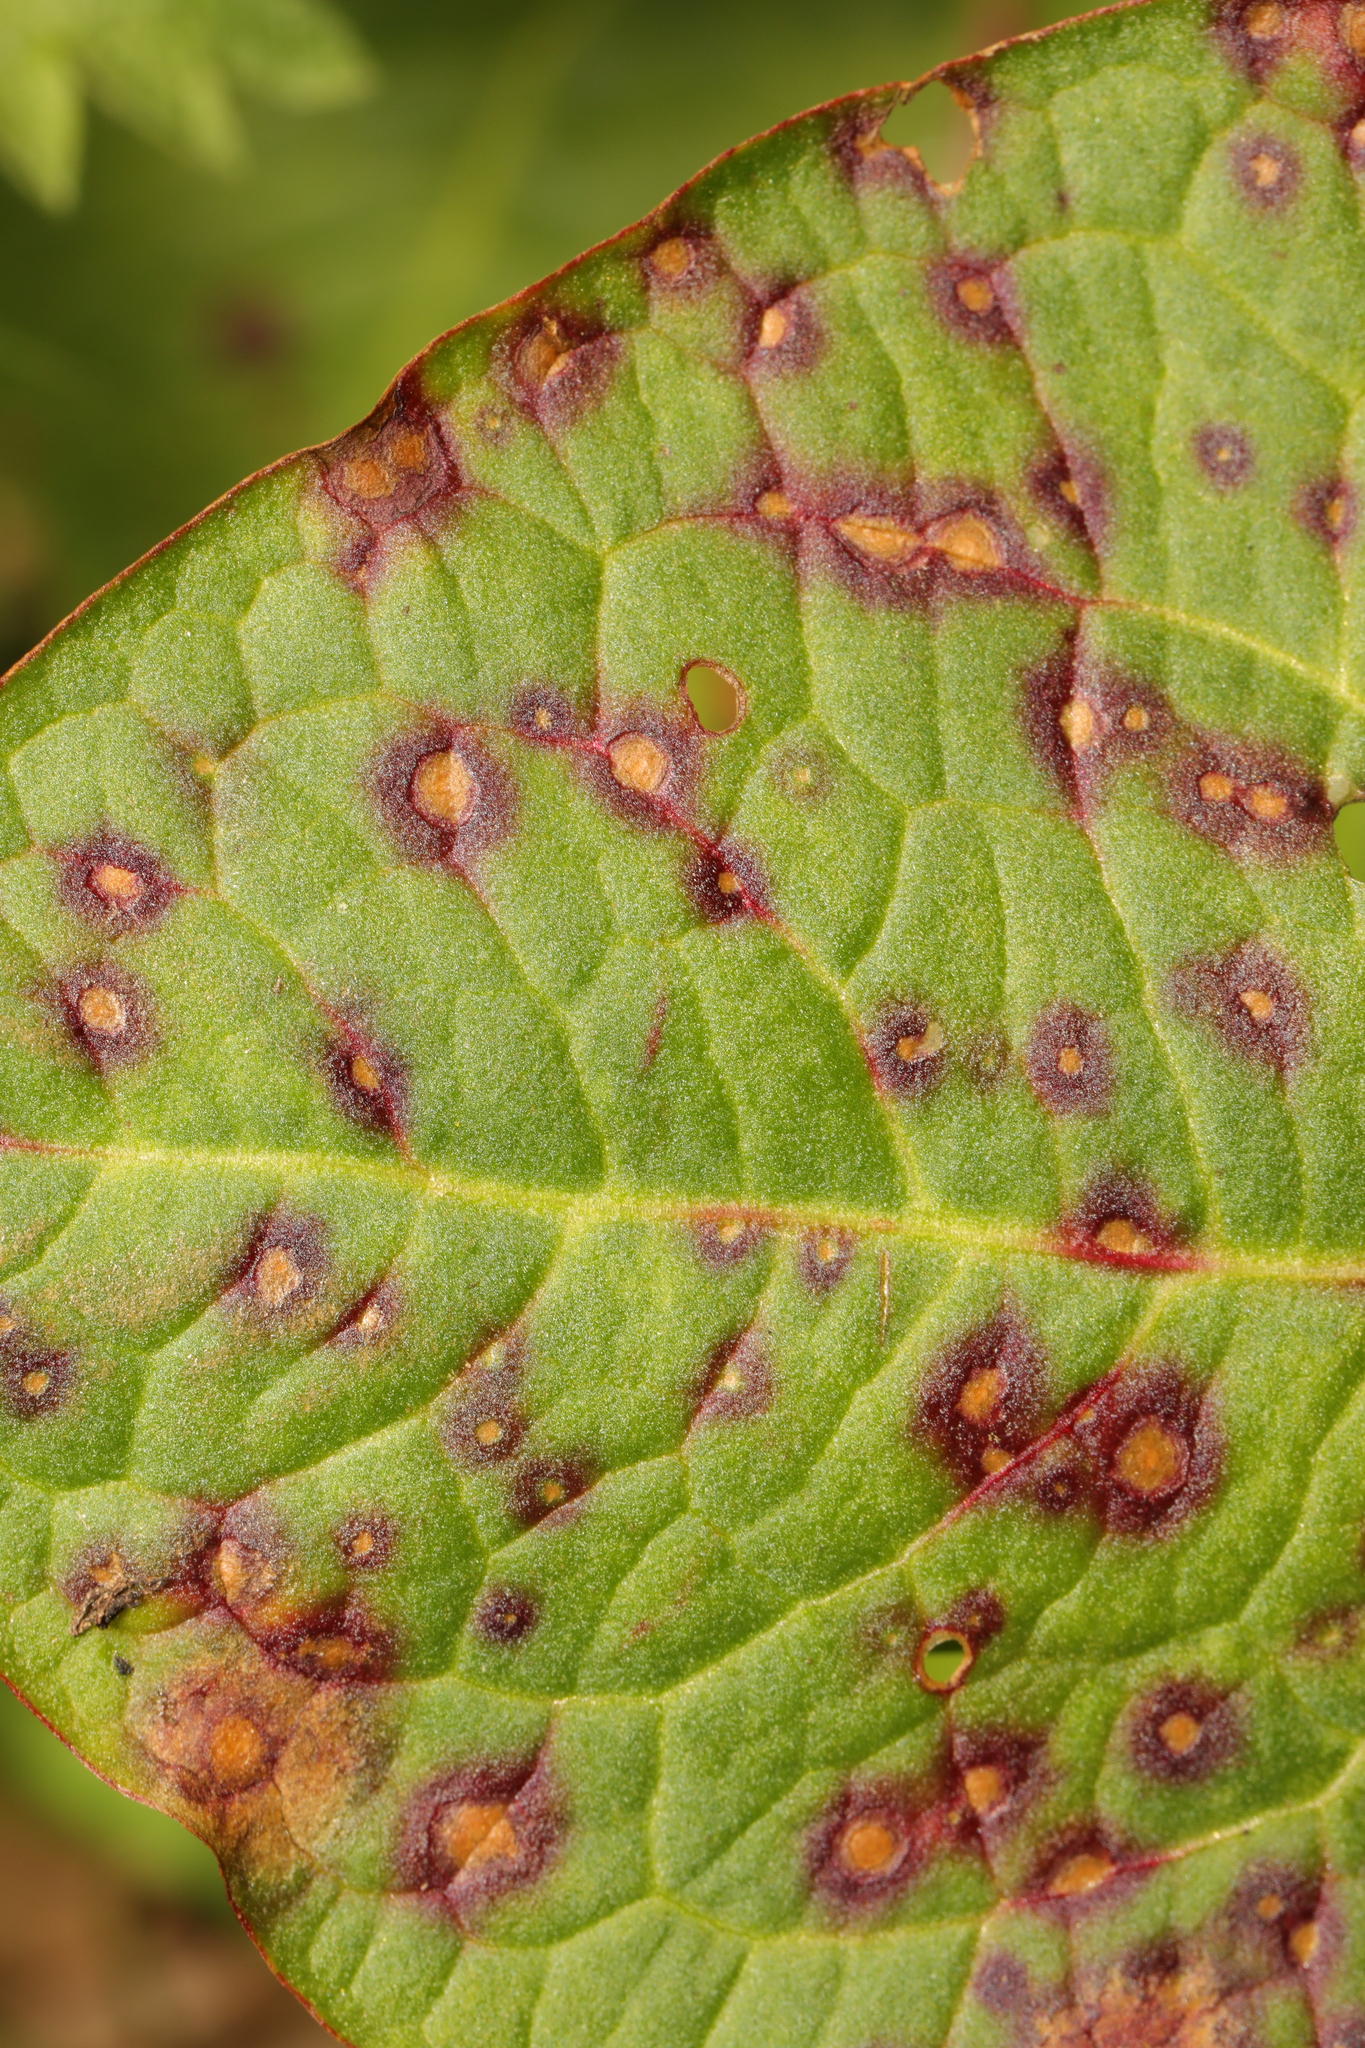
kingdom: Fungi
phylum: Ascomycota
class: Dothideomycetes
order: Mycosphaerellales
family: Mycosphaerellaceae
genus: Ramularia
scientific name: Ramularia rubella
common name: Red dock spot
